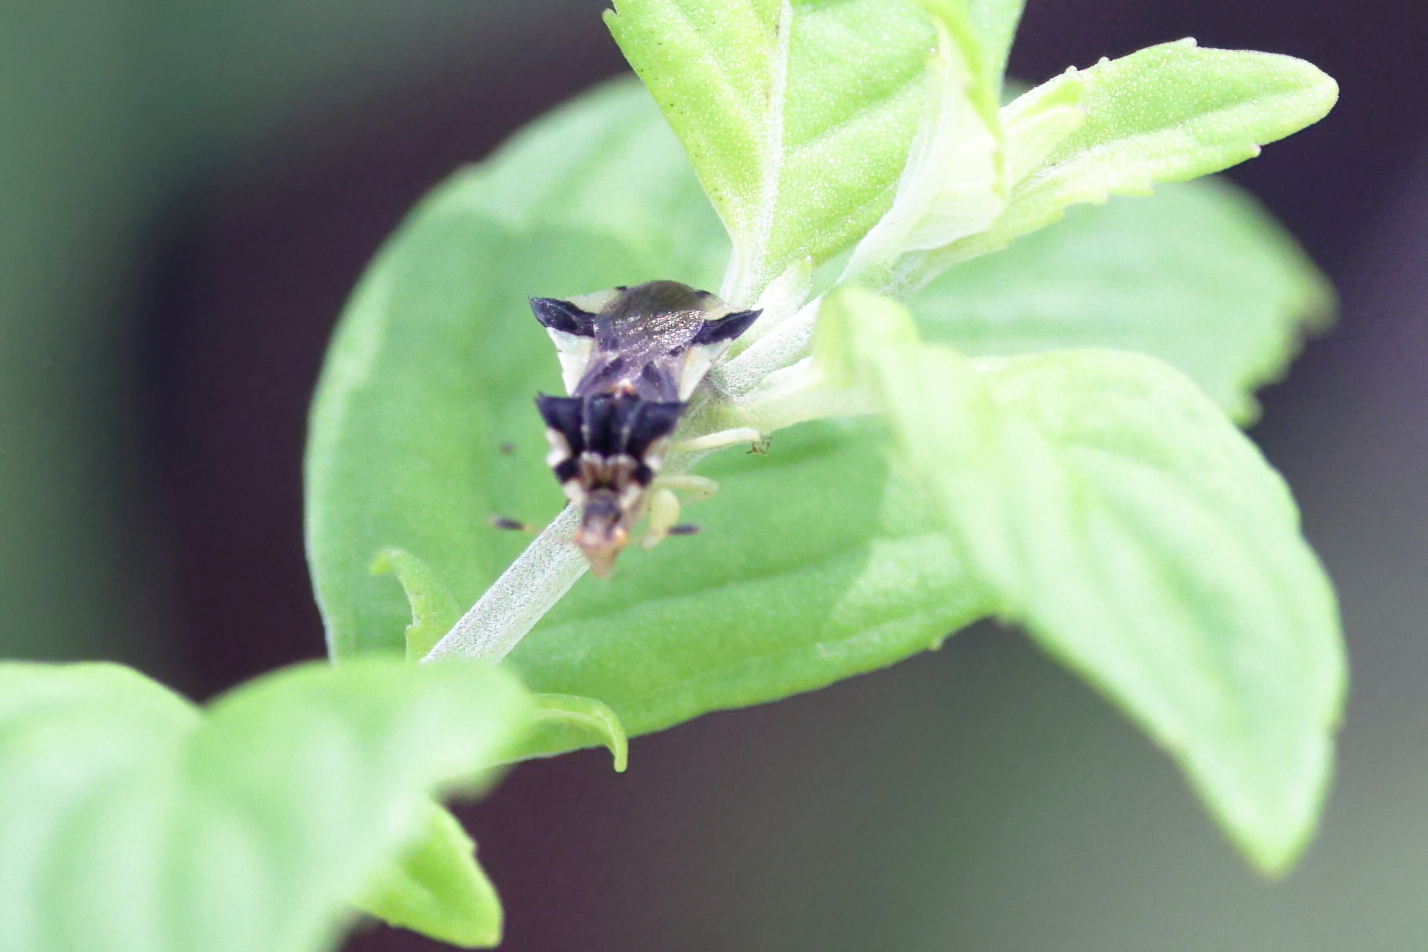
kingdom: Animalia
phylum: Arthropoda
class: Insecta
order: Hemiptera
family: Reduviidae
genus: Phymata
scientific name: Phymata
